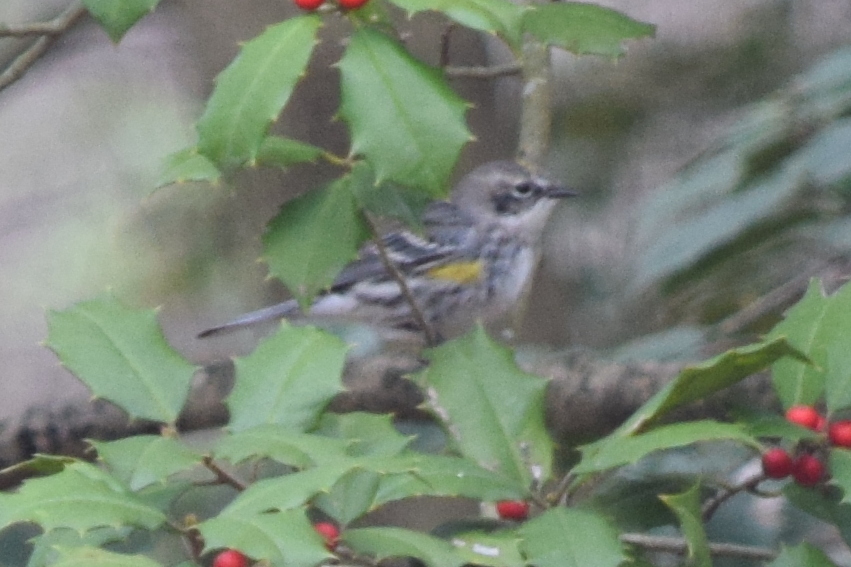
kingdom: Animalia
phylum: Chordata
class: Aves
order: Passeriformes
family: Parulidae
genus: Setophaga
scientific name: Setophaga coronata
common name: Myrtle warbler
